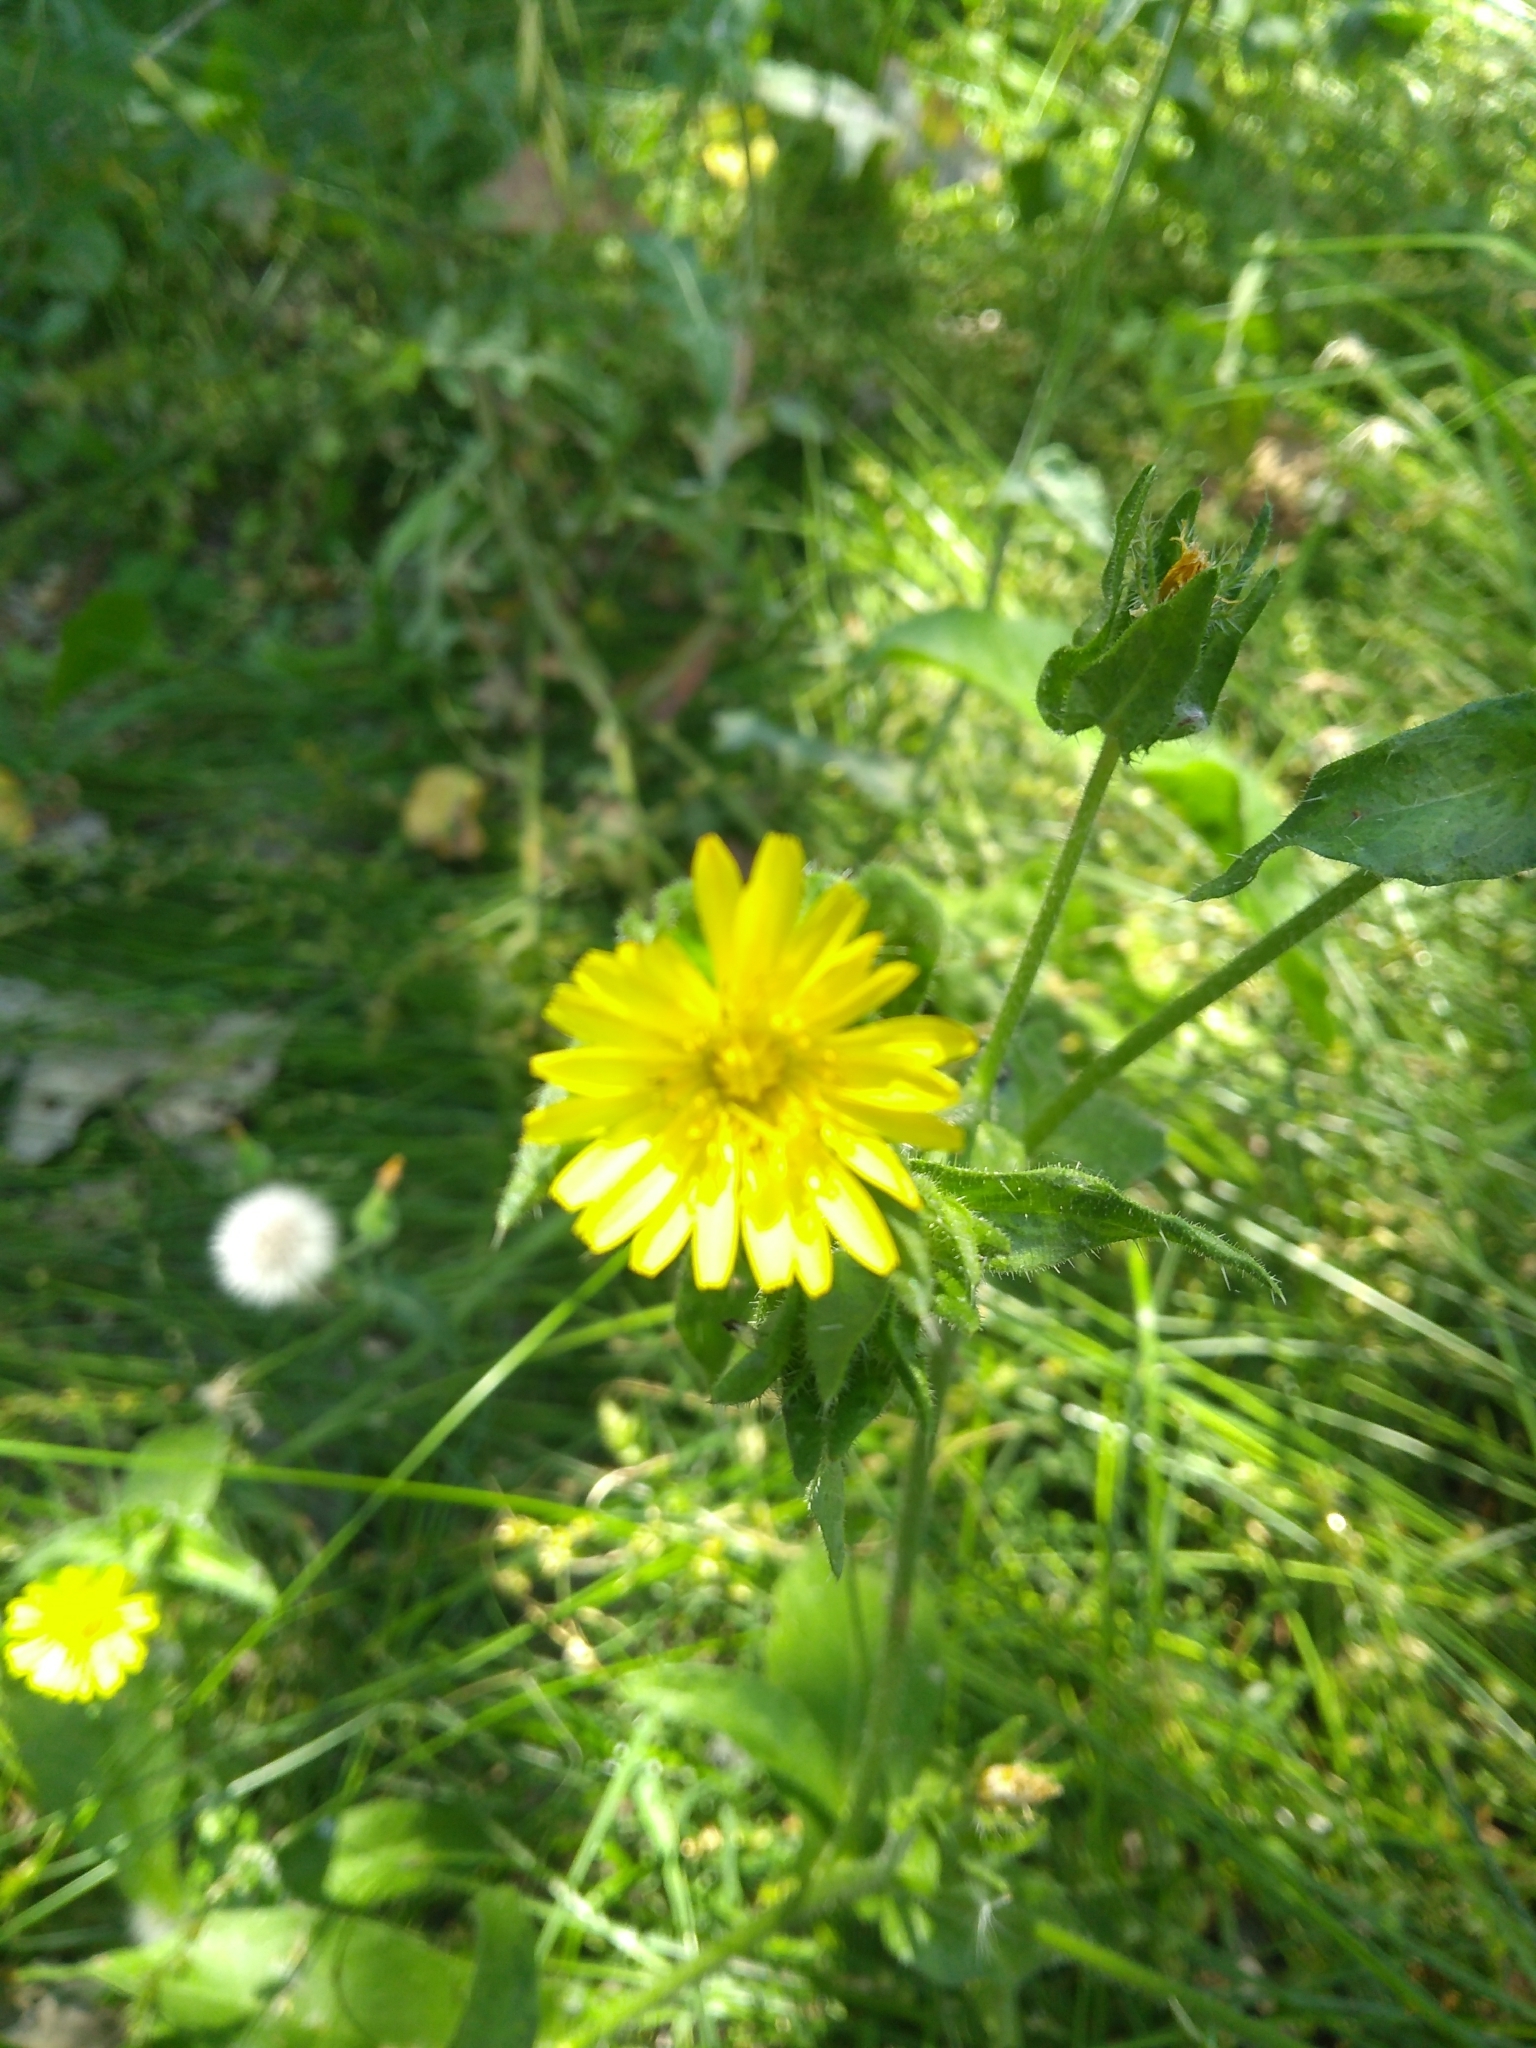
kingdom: Plantae
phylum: Tracheophyta
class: Magnoliopsida
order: Asterales
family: Asteraceae
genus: Helminthotheca
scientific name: Helminthotheca echioides
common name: Ox-tongue
